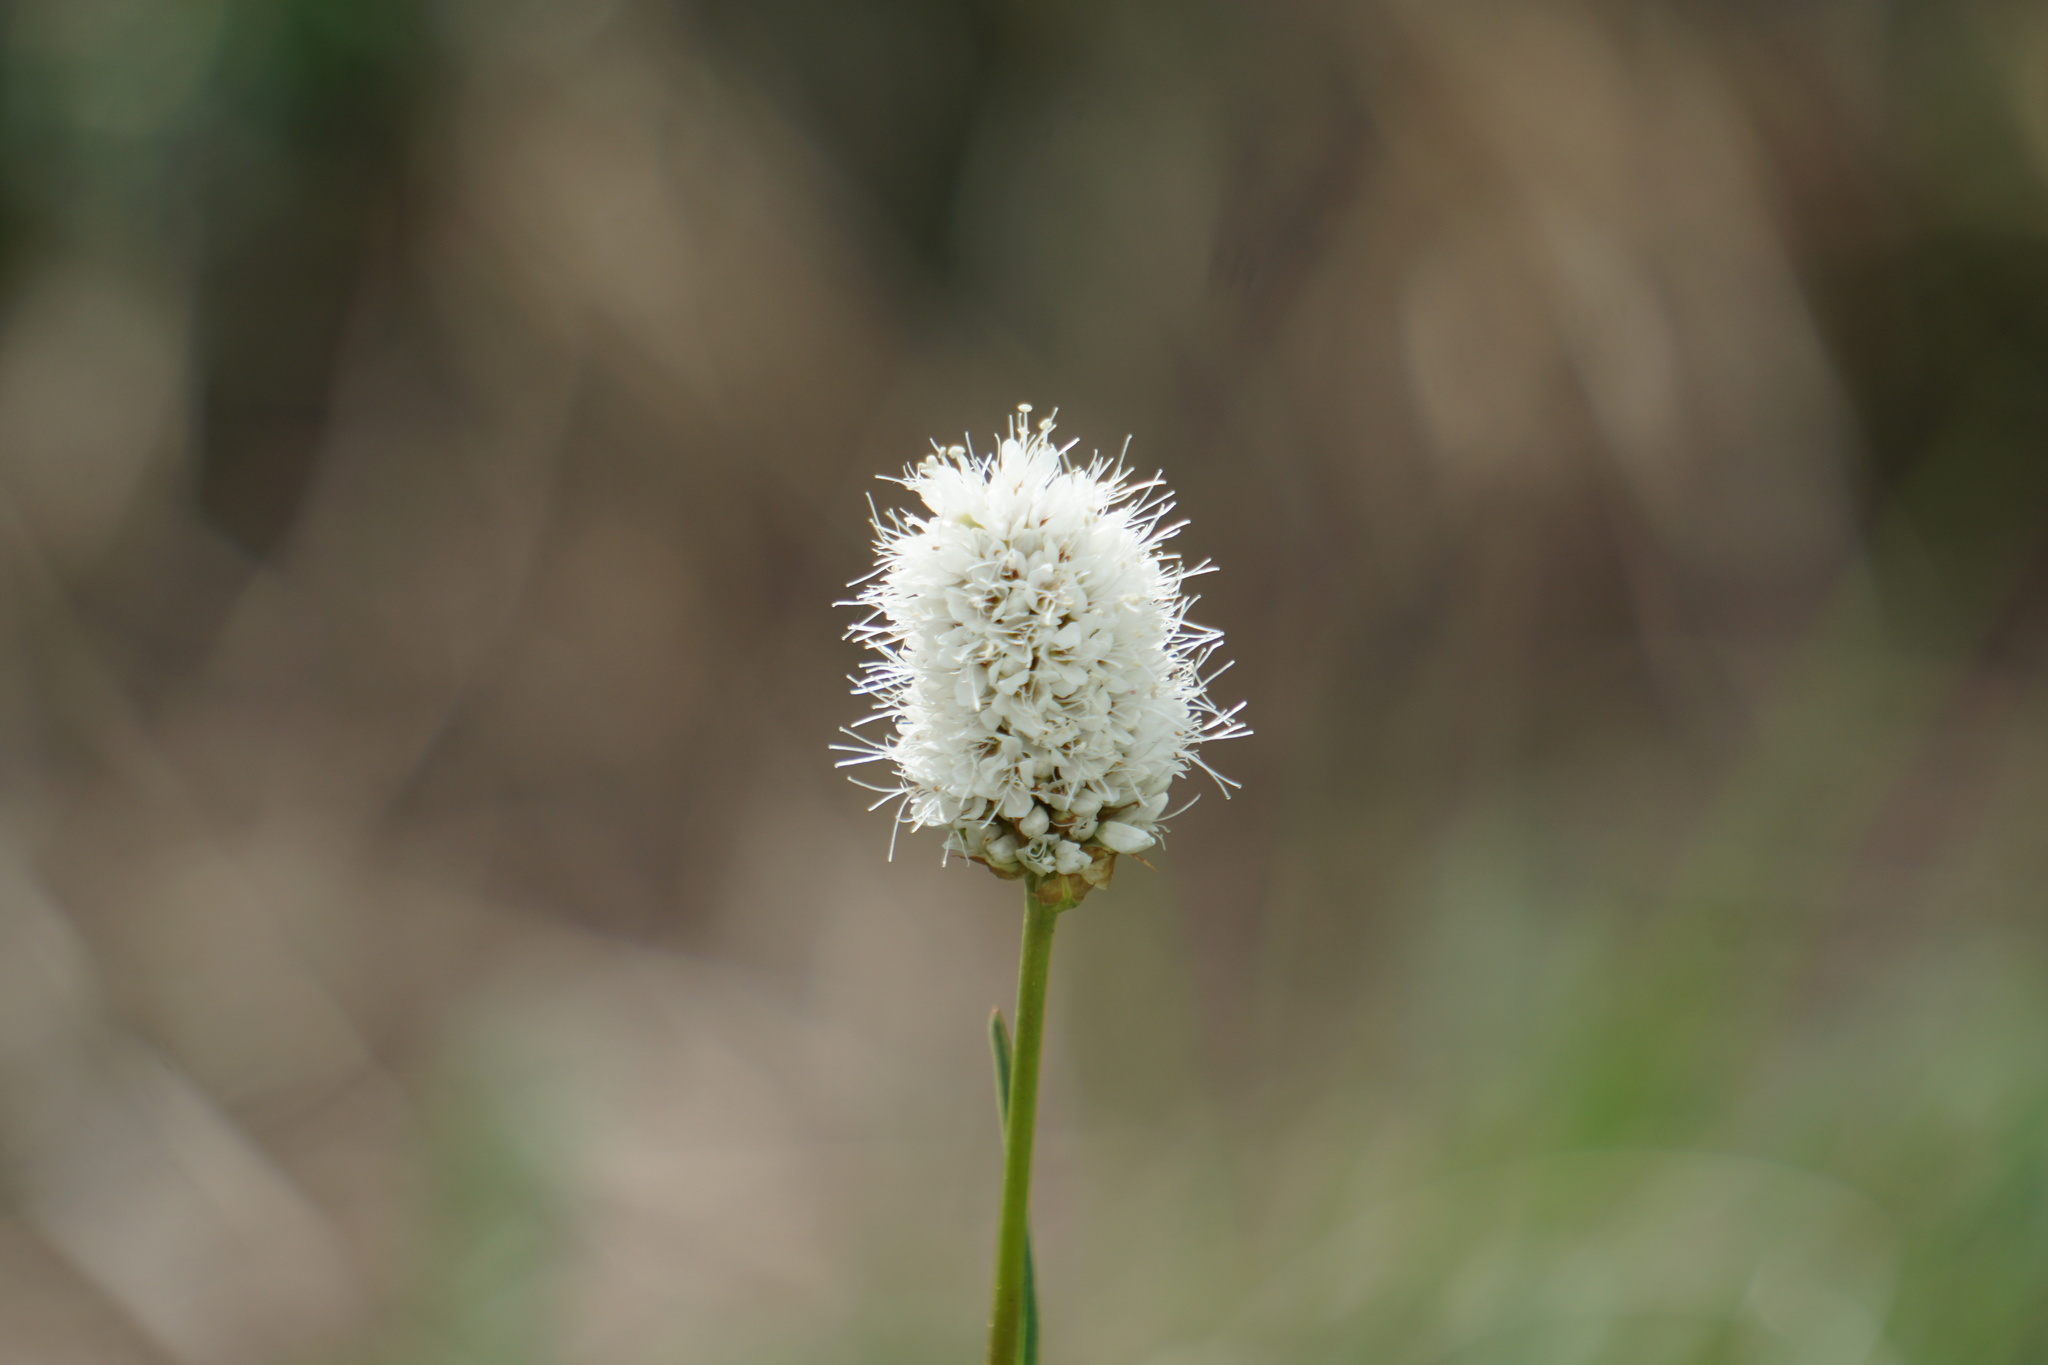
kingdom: Plantae
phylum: Tracheophyta
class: Magnoliopsida
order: Caryophyllales
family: Polygonaceae
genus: Bistorta
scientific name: Bistorta bistortoides
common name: American bistort
